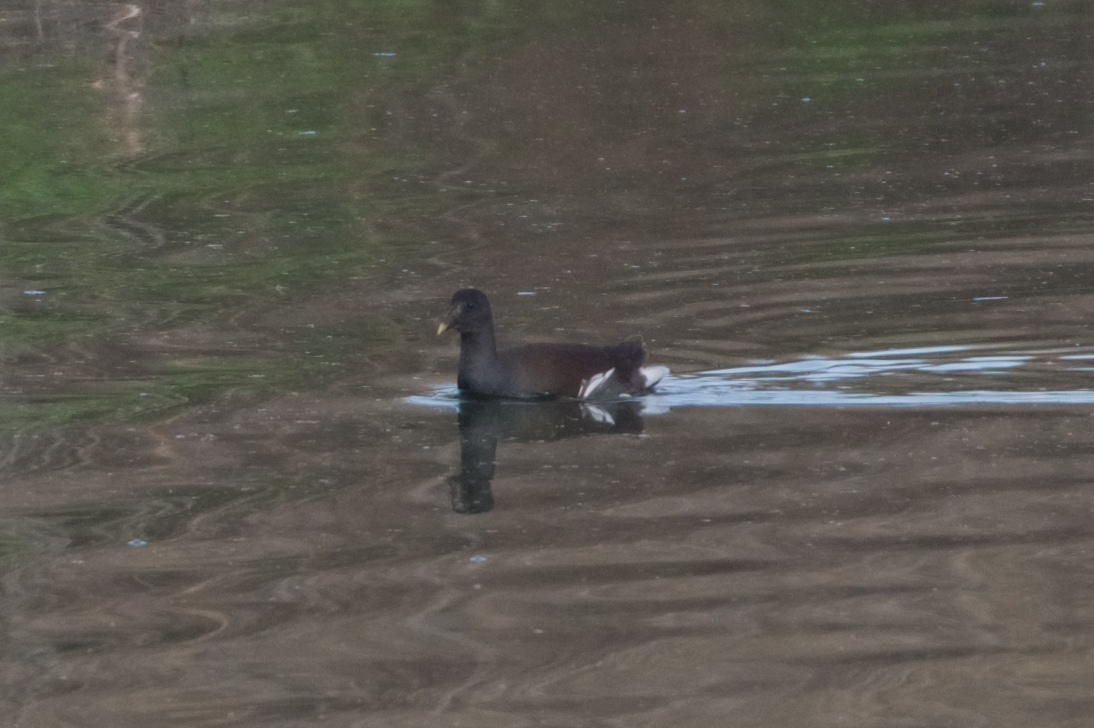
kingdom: Animalia
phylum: Chordata
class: Aves
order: Gruiformes
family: Rallidae
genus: Gallinula
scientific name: Gallinula chloropus
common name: Common moorhen
